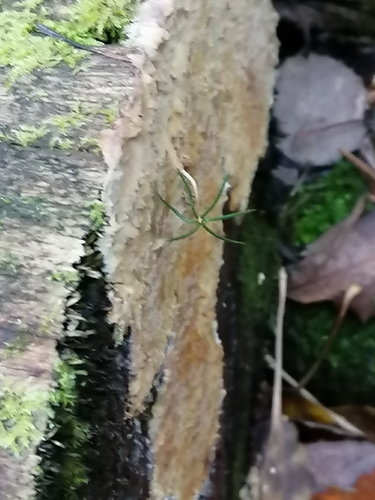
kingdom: Fungi
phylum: Basidiomycota
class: Agaricomycetes
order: Agaricales
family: Cystostereaceae
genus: Cystostereum
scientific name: Cystostereum murrayi
